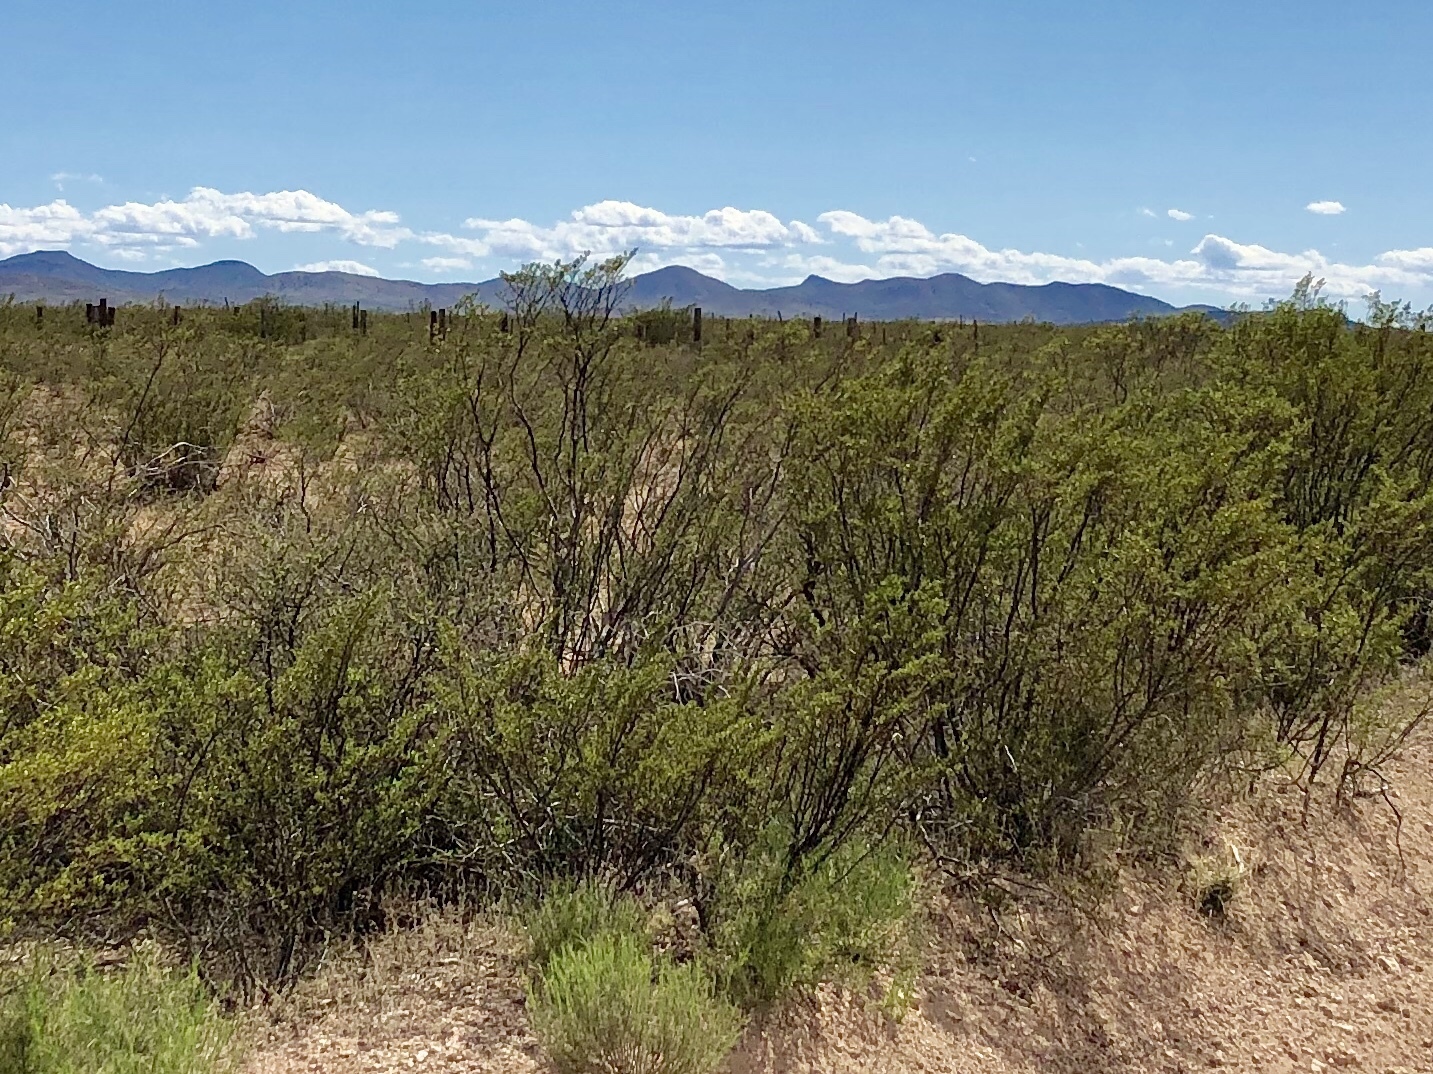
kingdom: Plantae
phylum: Tracheophyta
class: Magnoliopsida
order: Zygophyllales
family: Zygophyllaceae
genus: Larrea
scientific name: Larrea tridentata
